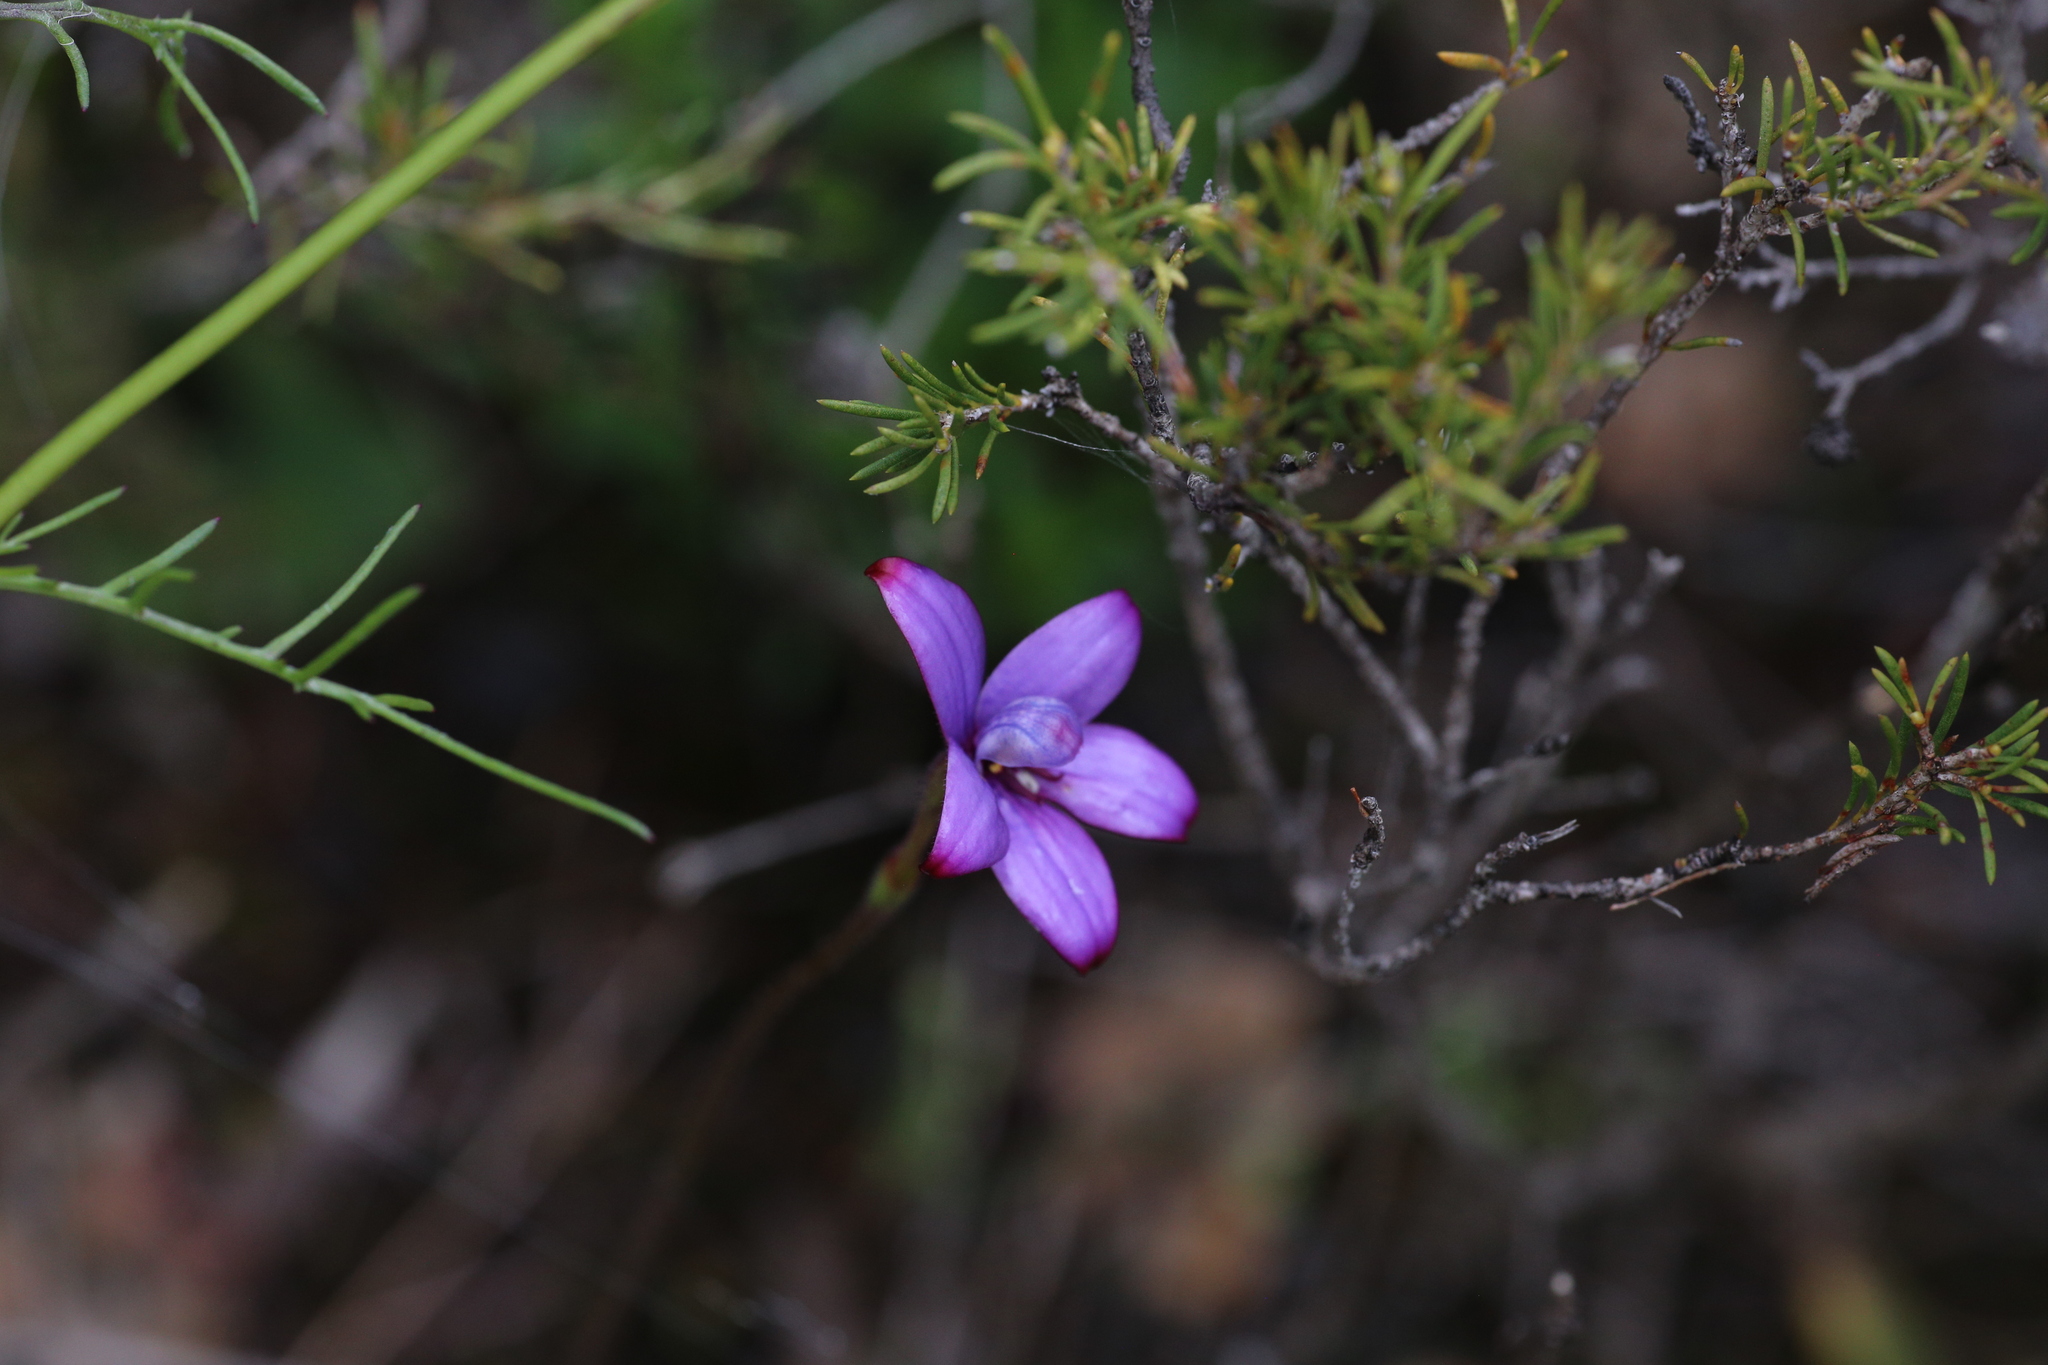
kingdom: Plantae
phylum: Tracheophyta
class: Liliopsida
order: Asparagales
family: Orchidaceae
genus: Caladenia
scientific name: Caladenia brunonis
